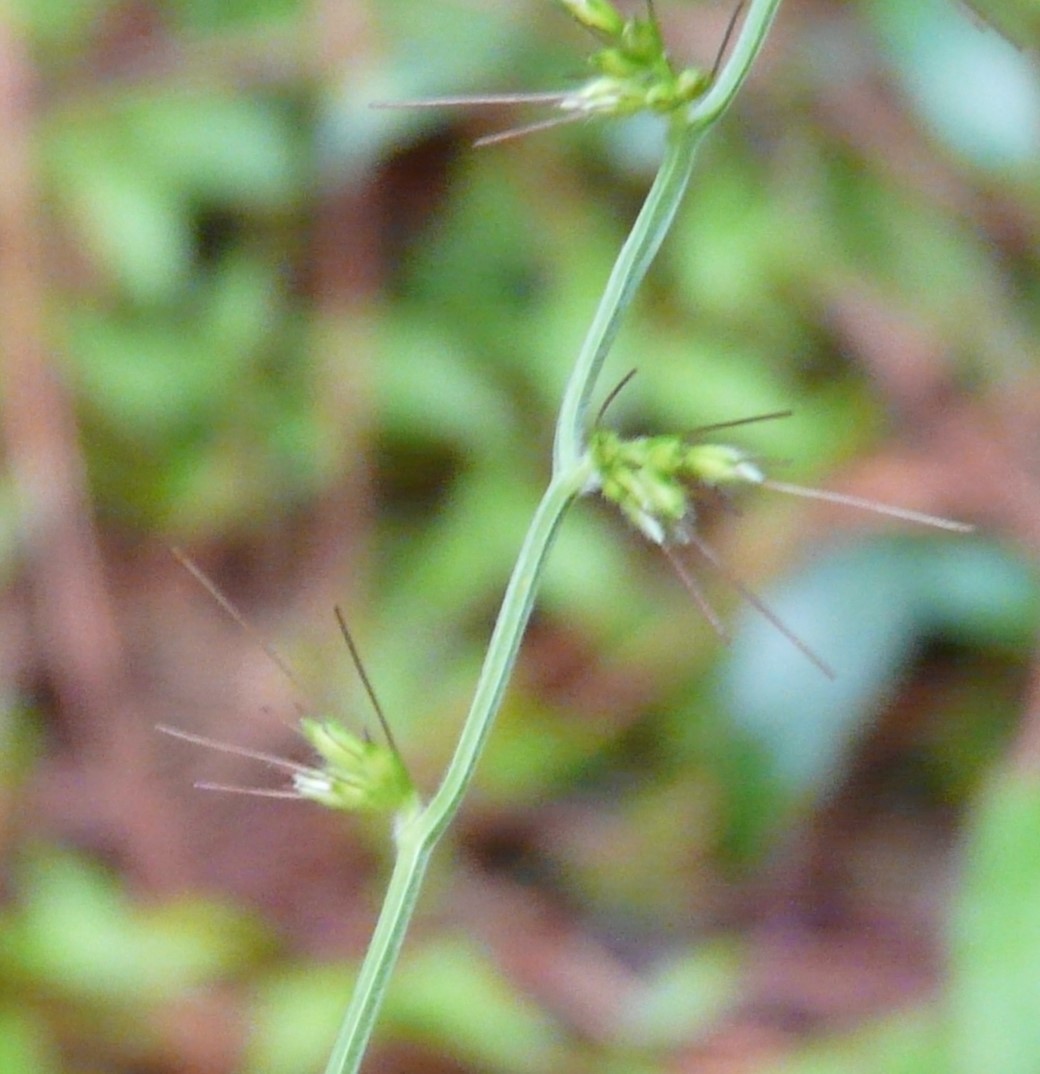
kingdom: Plantae
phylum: Tracheophyta
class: Liliopsida
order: Poales
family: Poaceae
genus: Oplismenus
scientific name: Oplismenus compositus
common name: Running mountain grass
